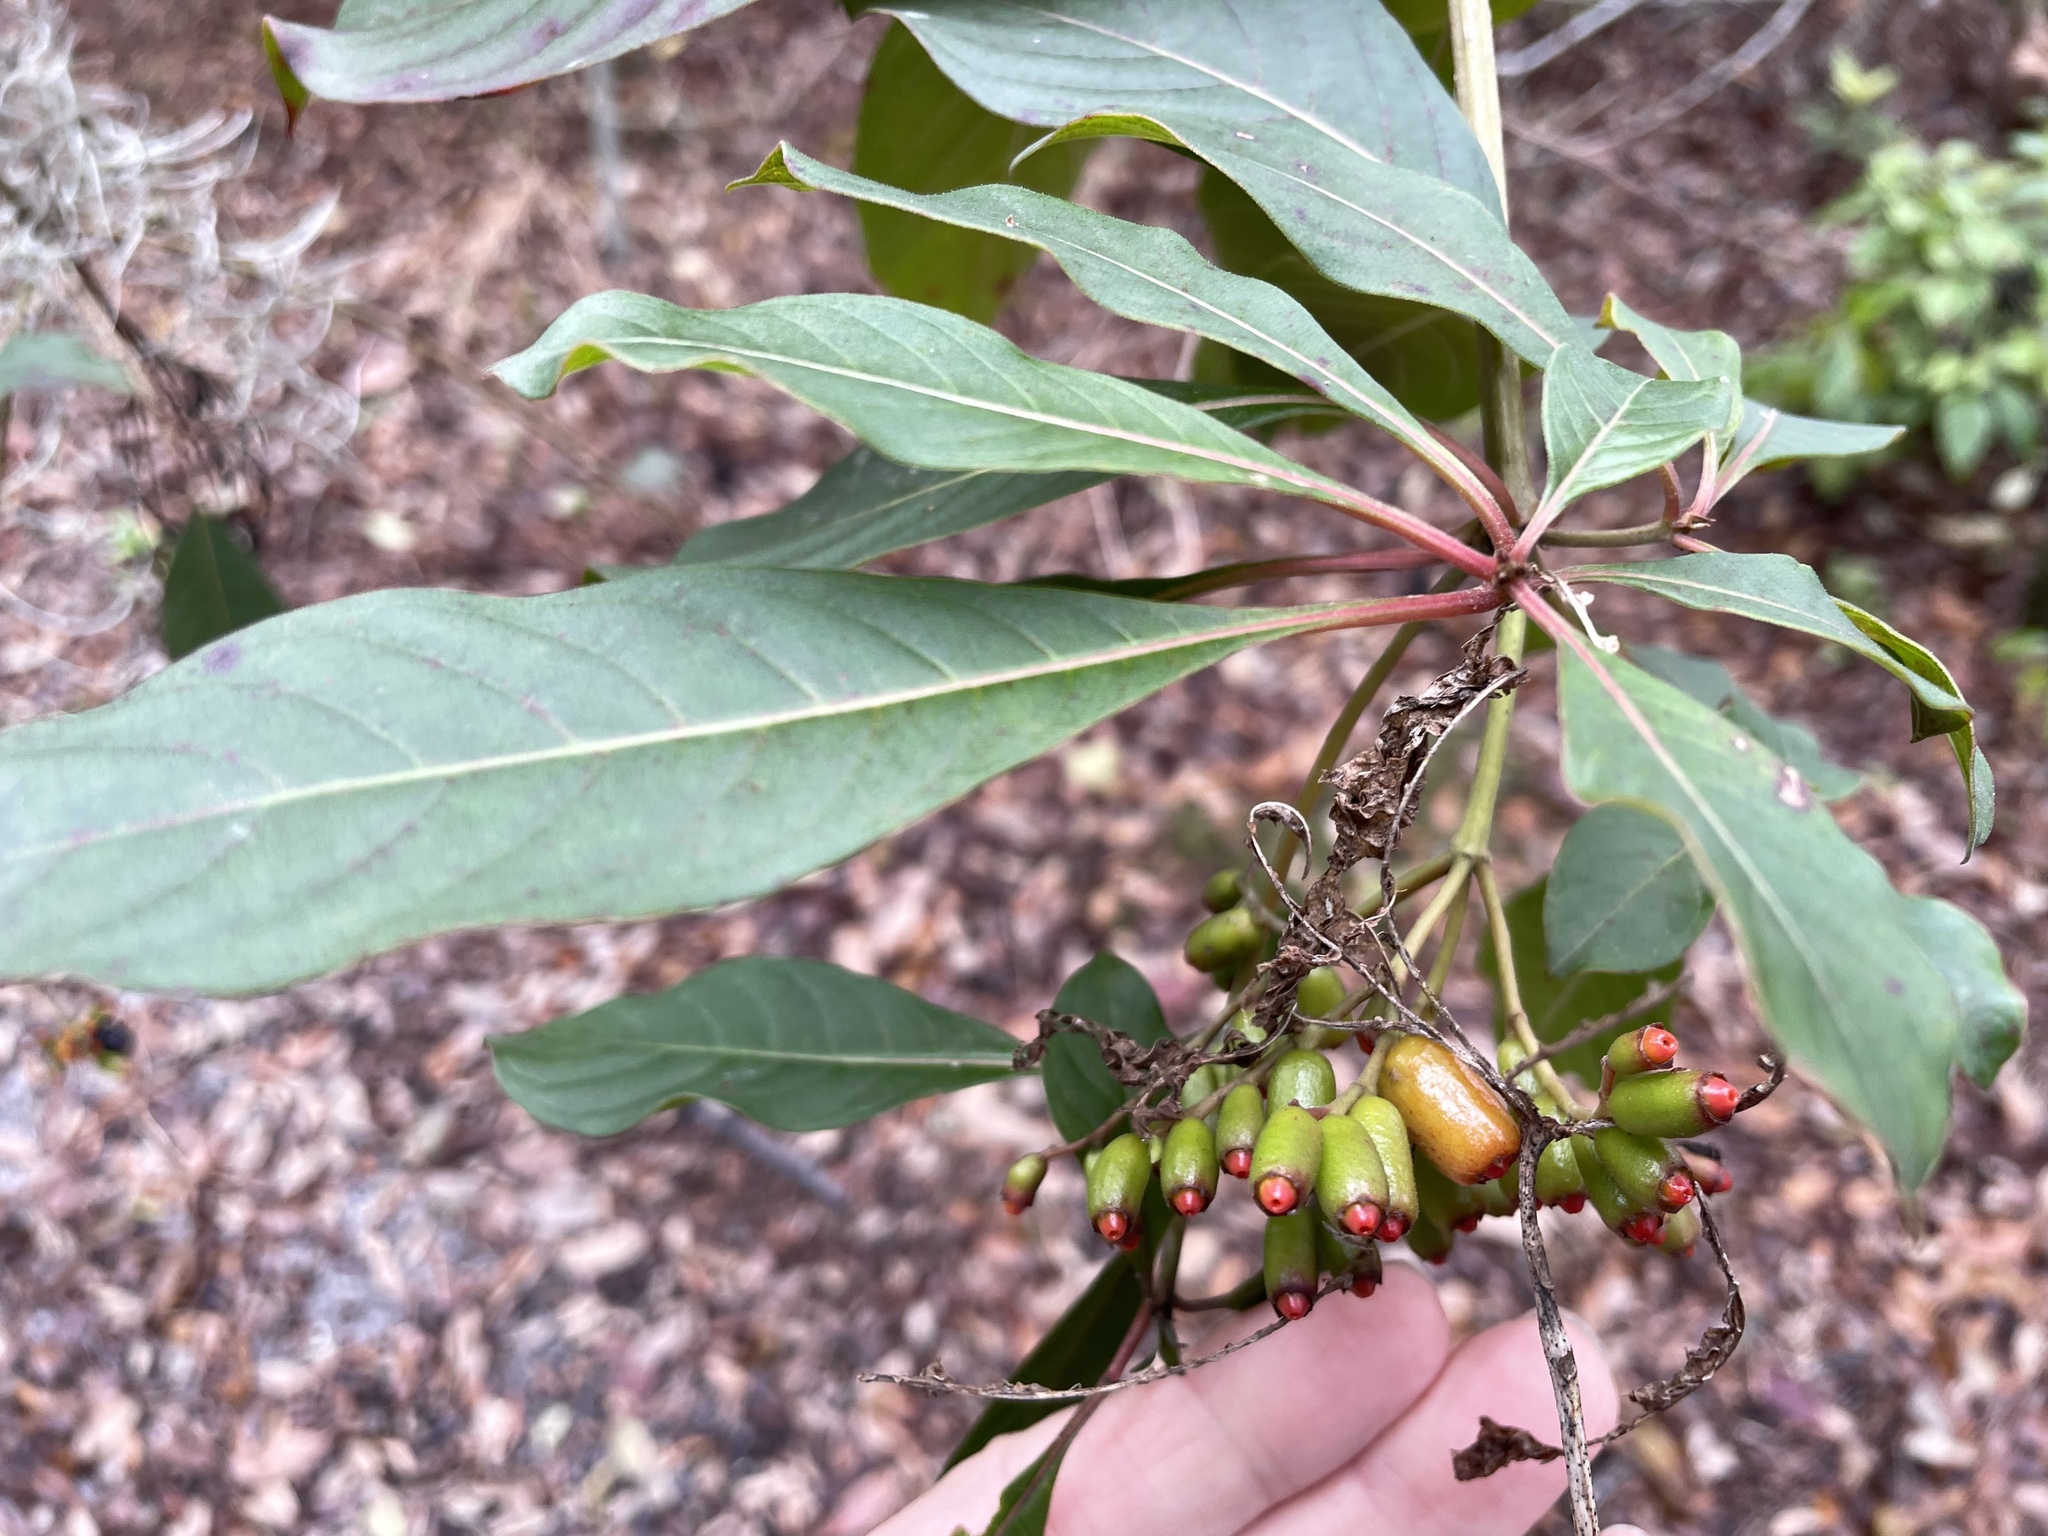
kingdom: Plantae
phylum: Tracheophyta
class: Magnoliopsida
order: Gentianales
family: Rubiaceae
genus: Hamelia
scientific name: Hamelia patens
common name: Redhead
